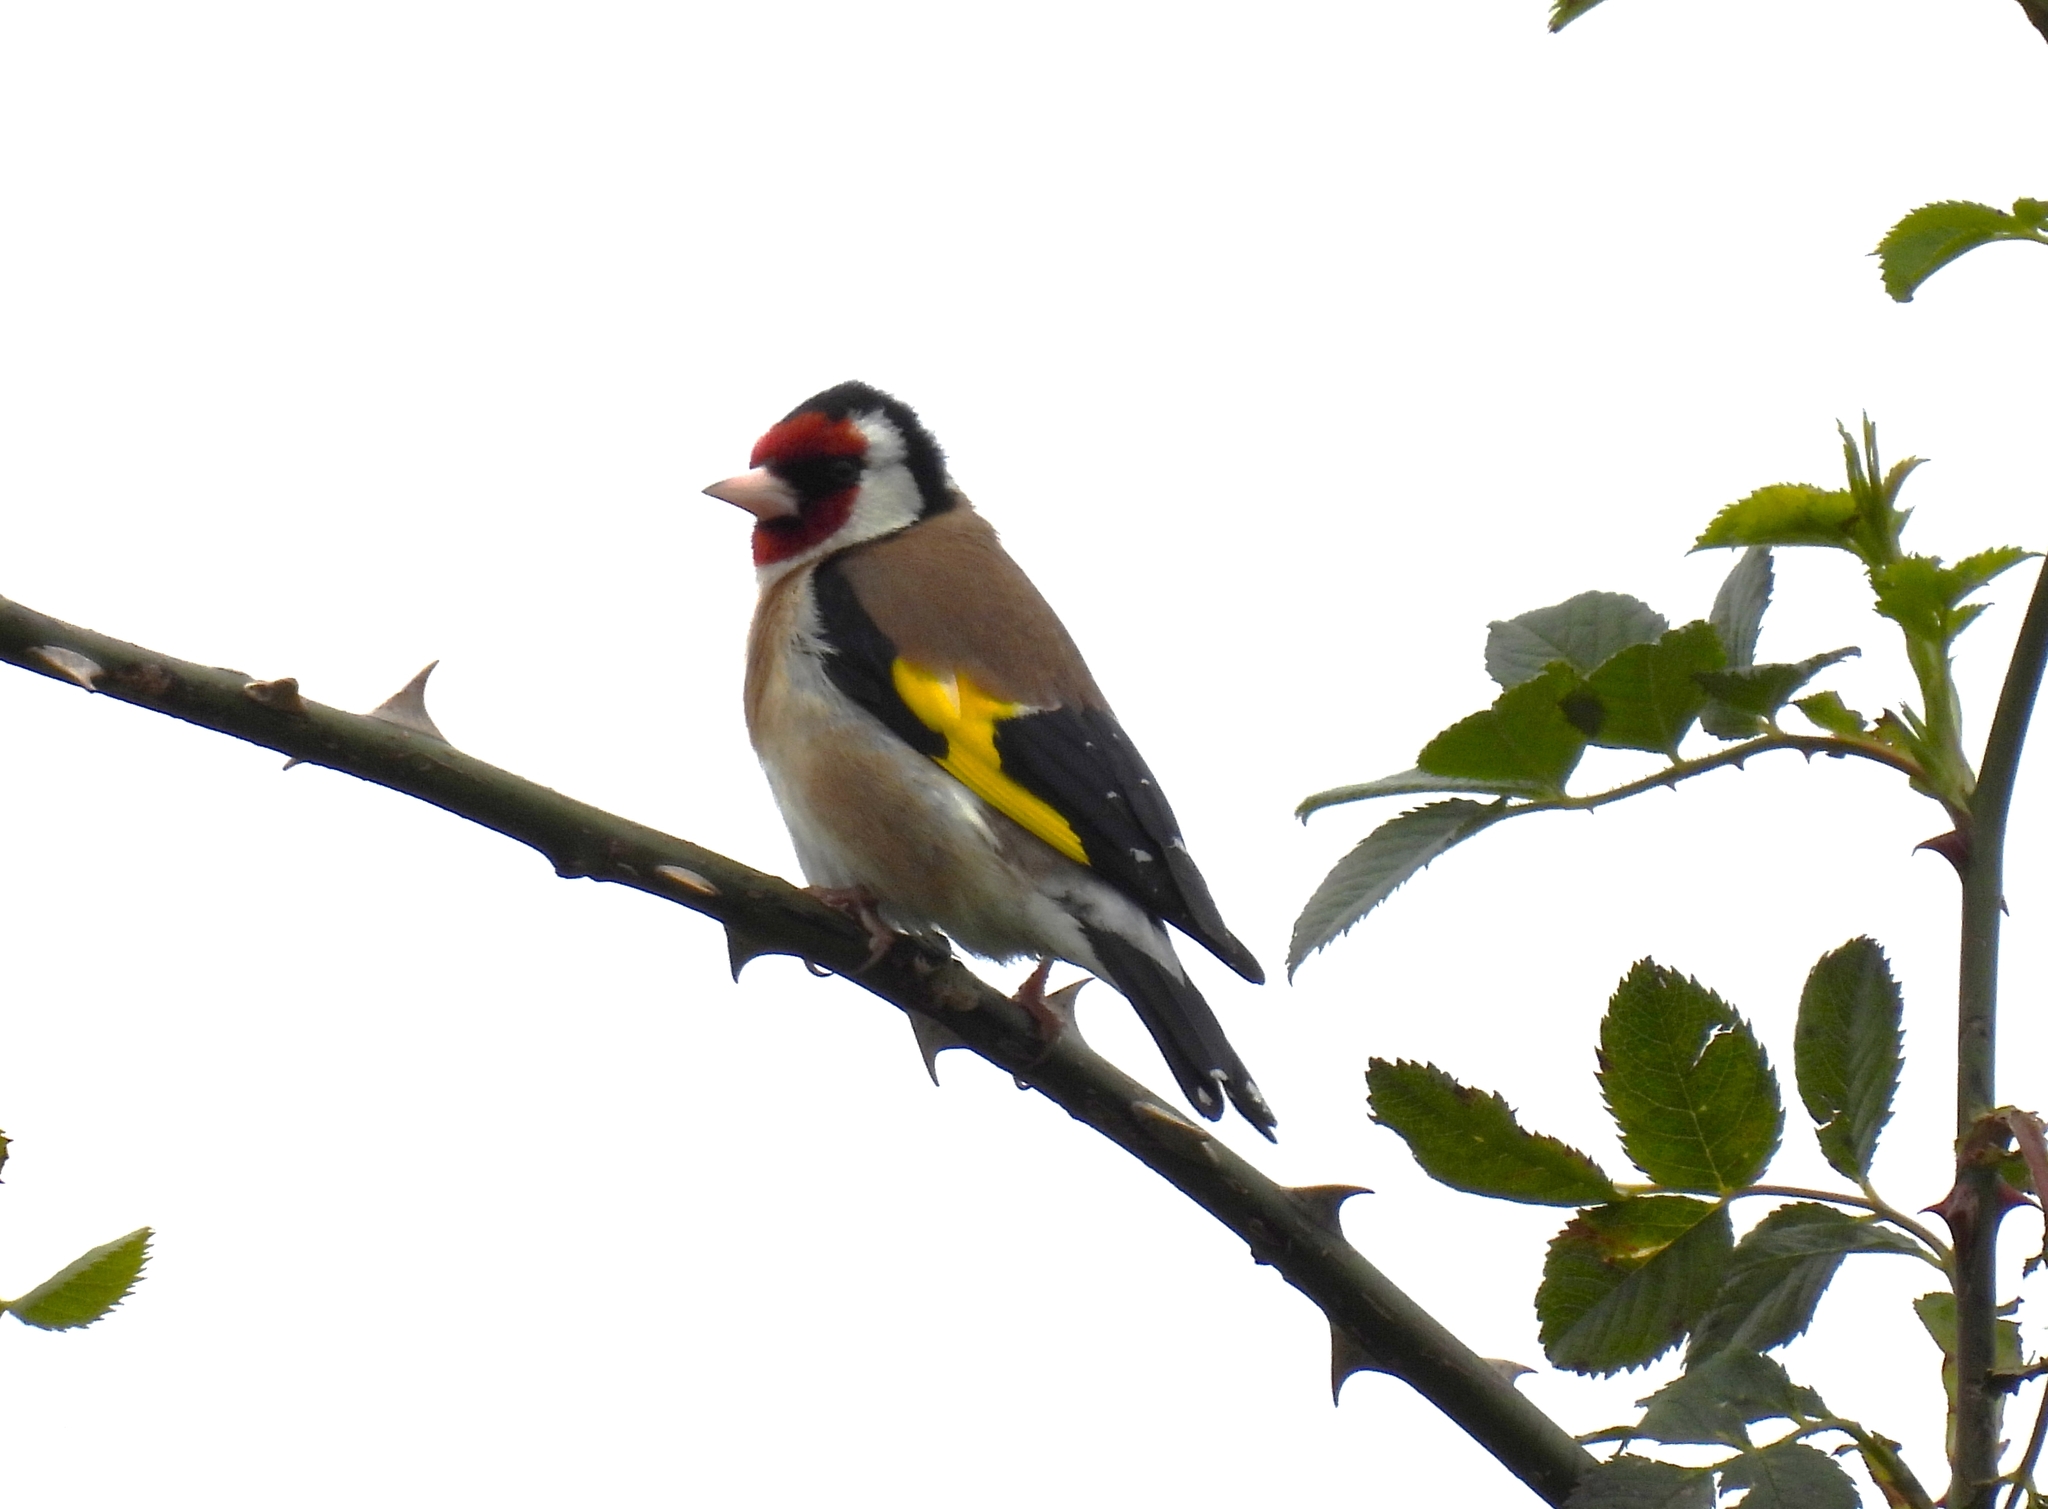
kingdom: Animalia
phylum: Chordata
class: Aves
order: Passeriformes
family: Fringillidae
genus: Carduelis
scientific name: Carduelis carduelis
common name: European goldfinch
